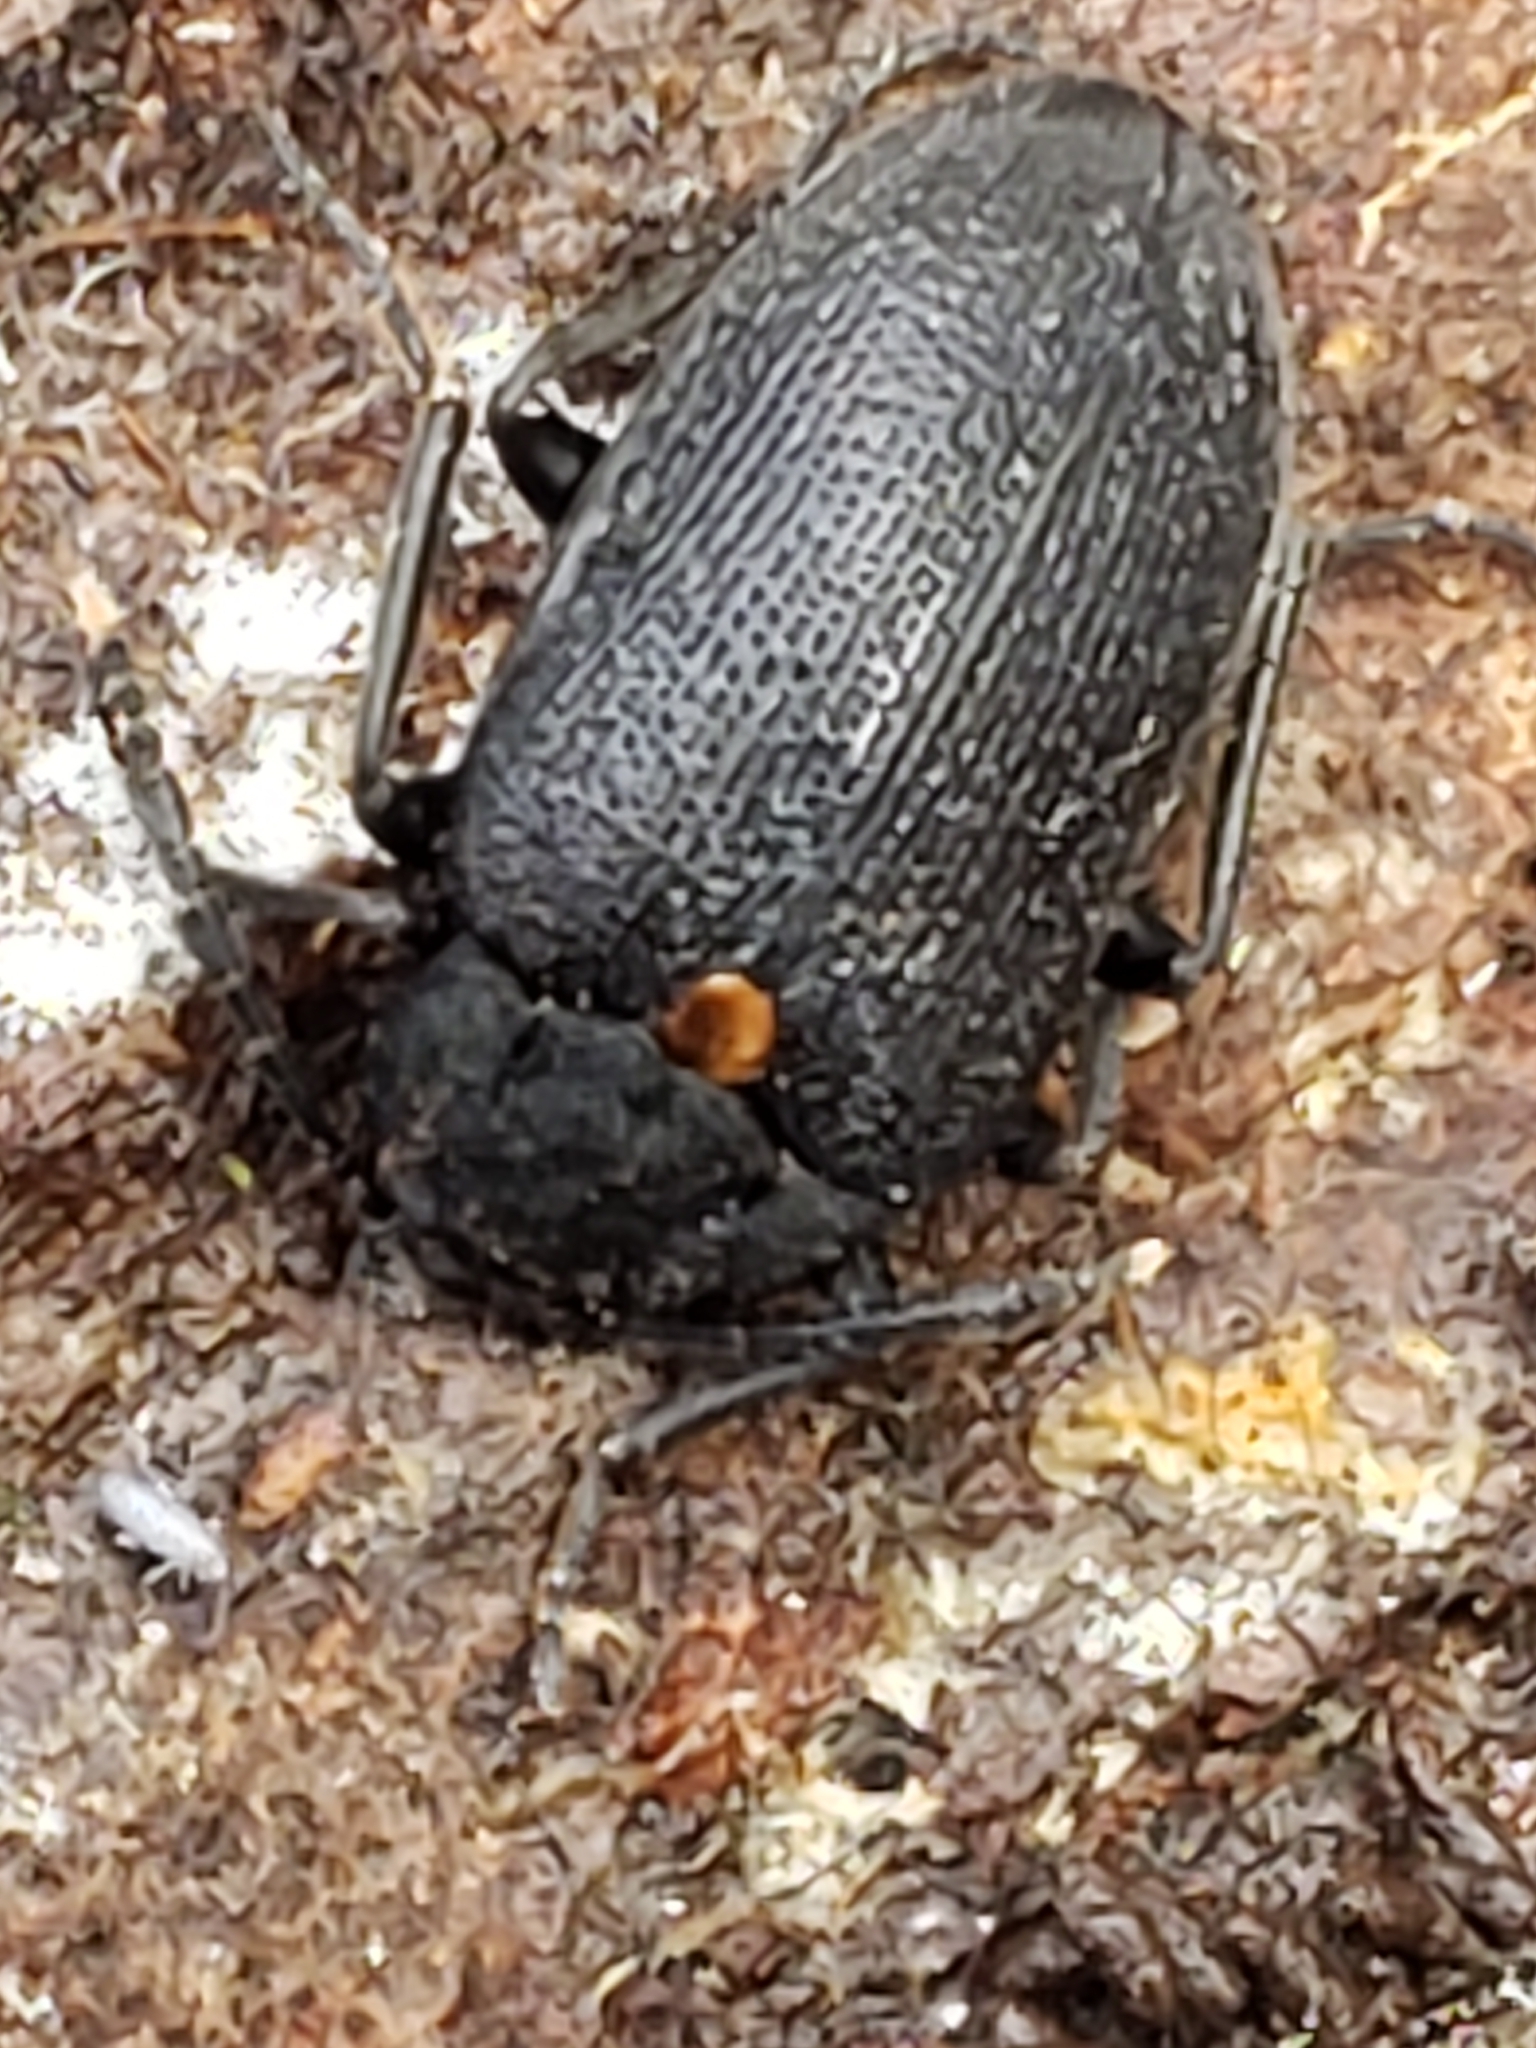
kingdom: Animalia
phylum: Arthropoda
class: Insecta
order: Coleoptera
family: Tetratomidae
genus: Penthe
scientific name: Penthe obliquata
